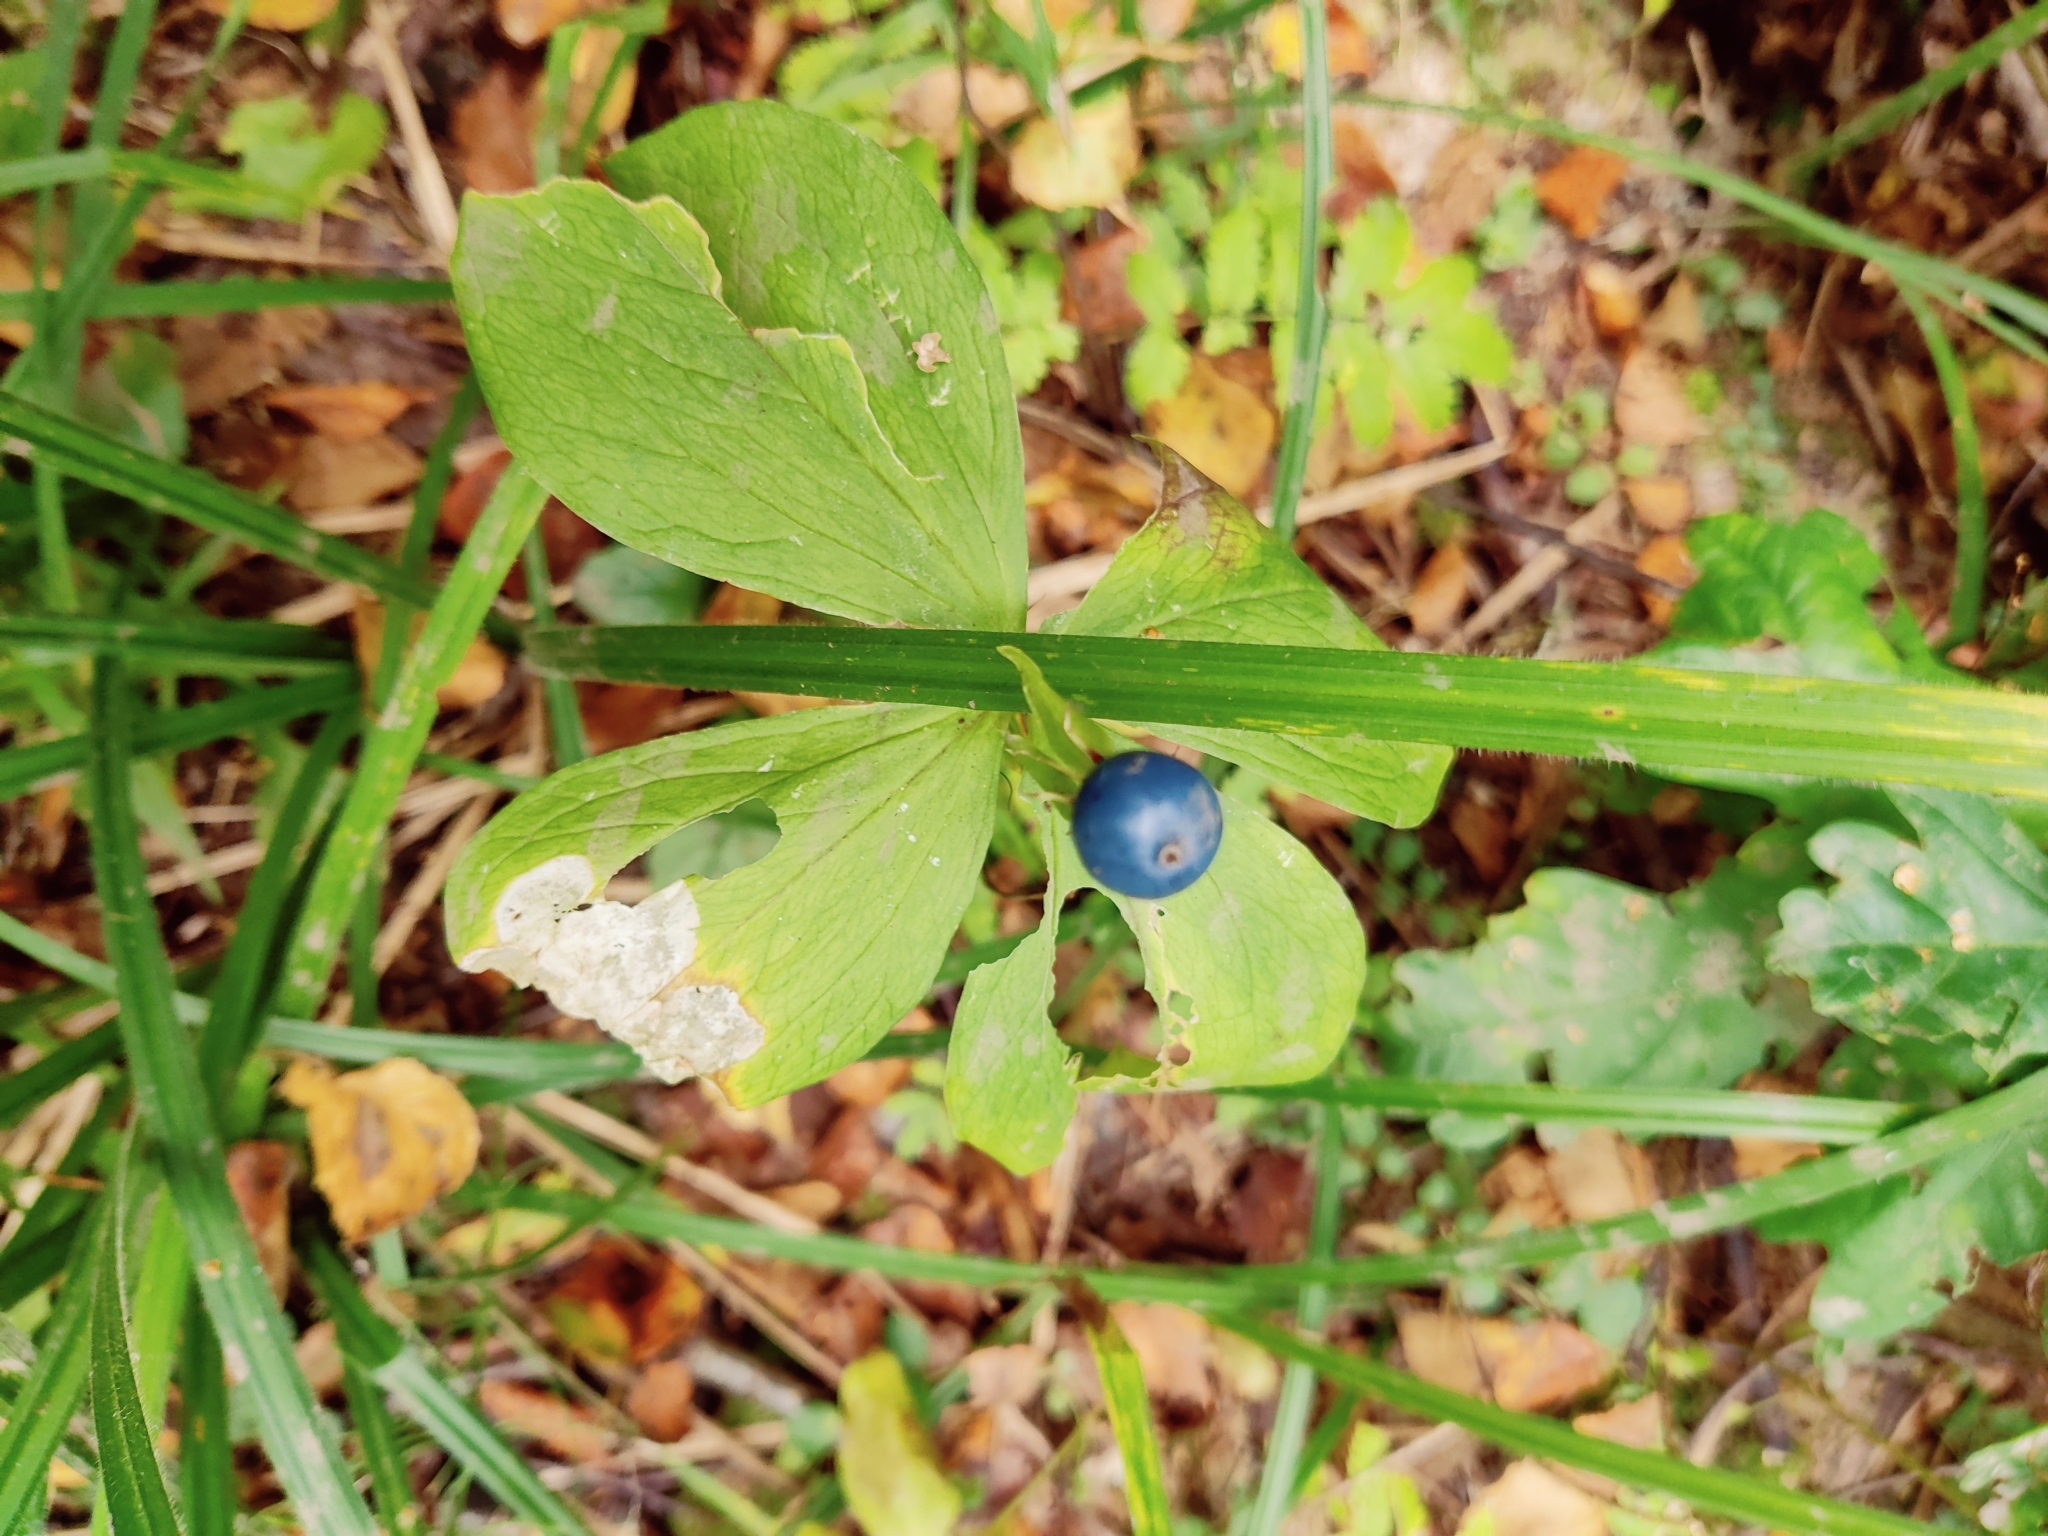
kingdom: Plantae
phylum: Tracheophyta
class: Liliopsida
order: Liliales
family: Melanthiaceae
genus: Paris
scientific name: Paris quadrifolia
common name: Herb-paris
